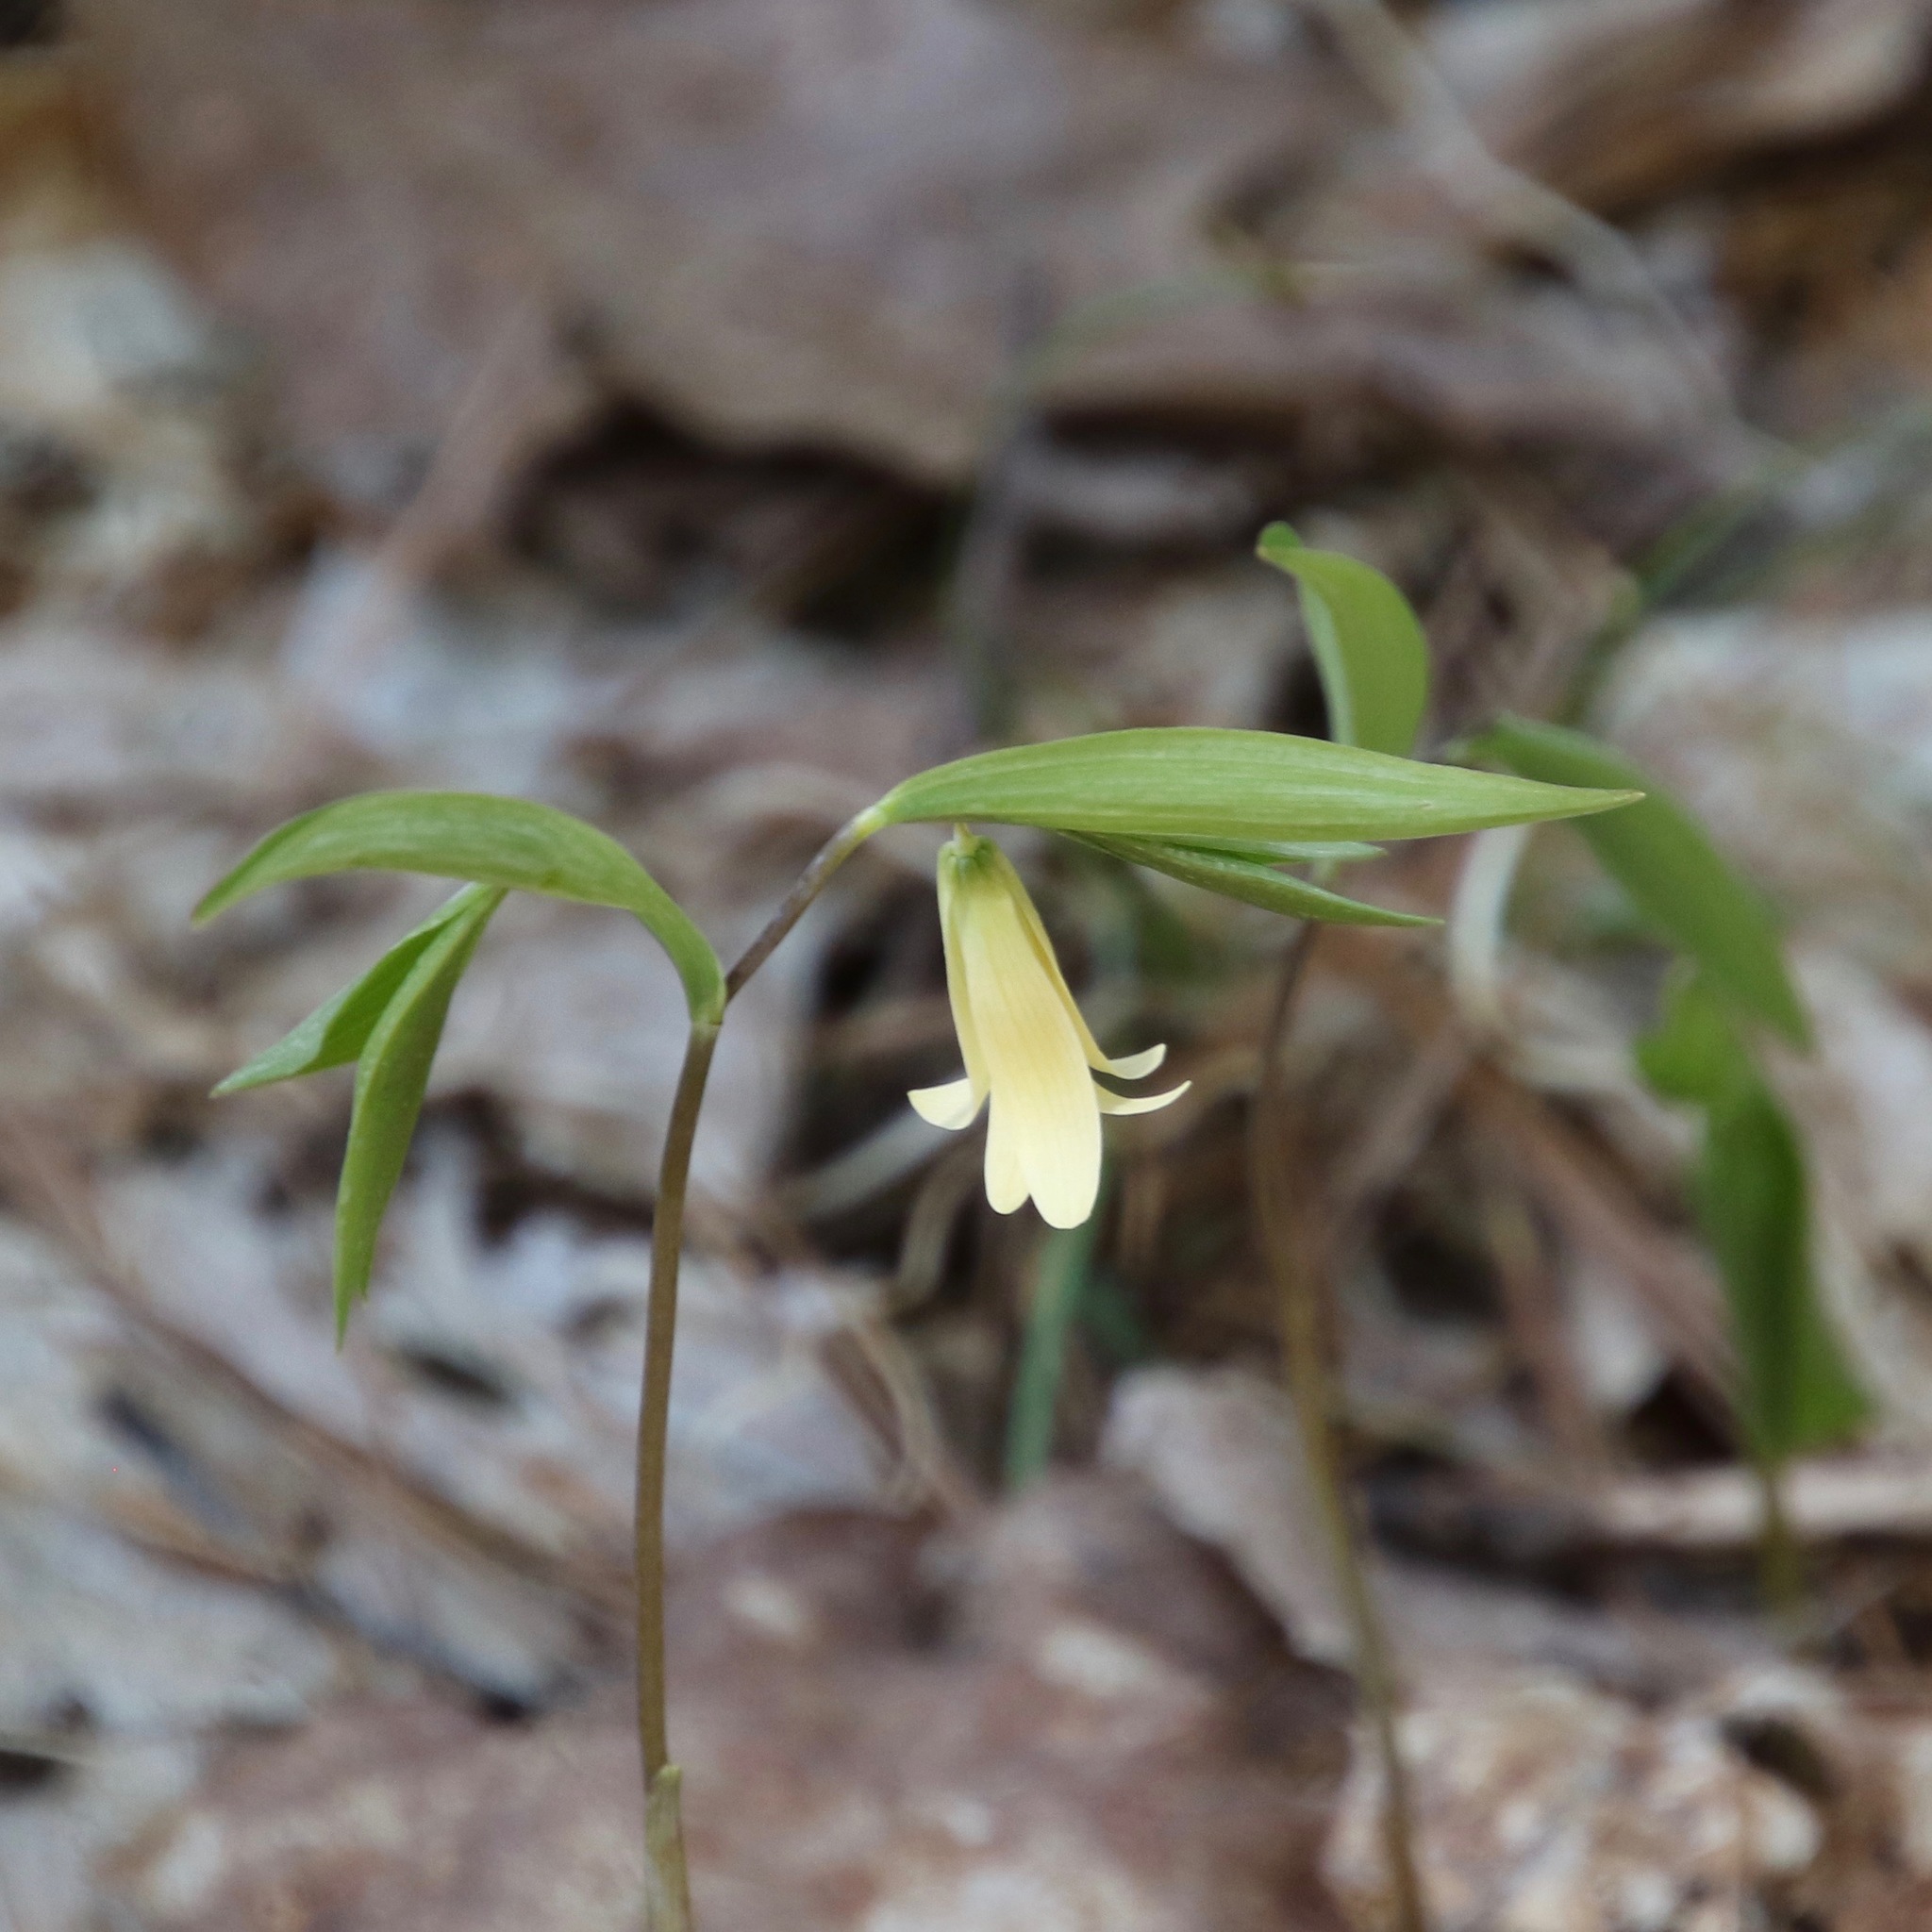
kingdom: Plantae
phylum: Tracheophyta
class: Liliopsida
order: Liliales
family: Colchicaceae
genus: Uvularia
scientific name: Uvularia sessilifolia
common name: Straw-lily
